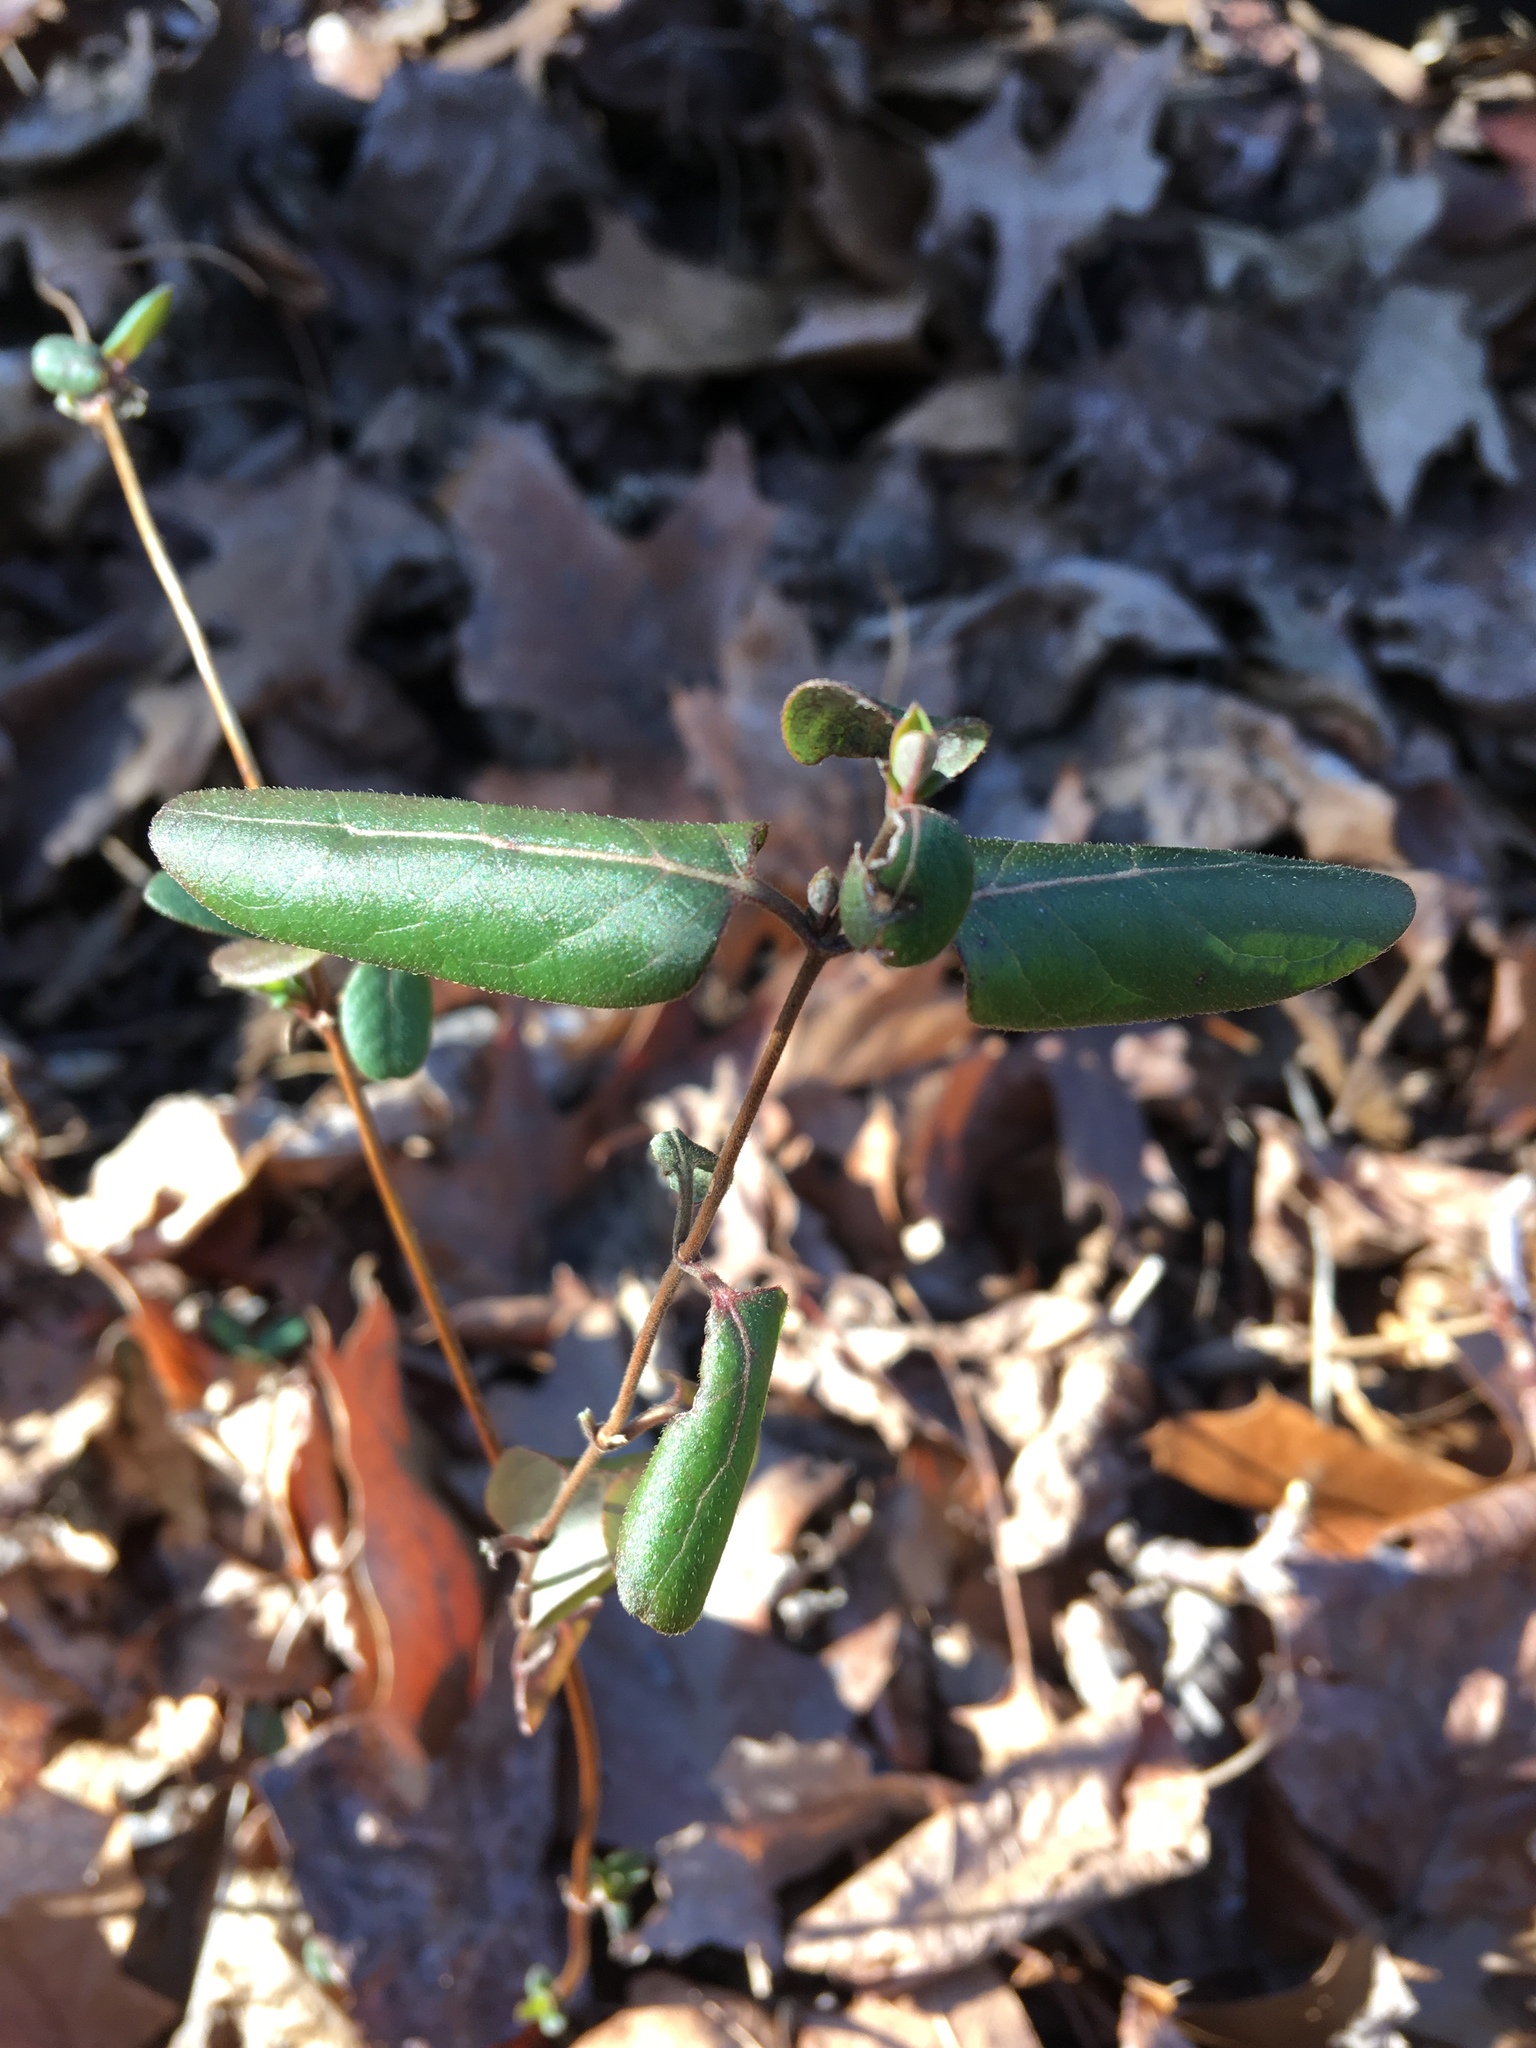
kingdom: Plantae
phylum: Tracheophyta
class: Magnoliopsida
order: Dipsacales
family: Caprifoliaceae
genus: Lonicera
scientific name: Lonicera japonica
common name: Japanese honeysuckle
